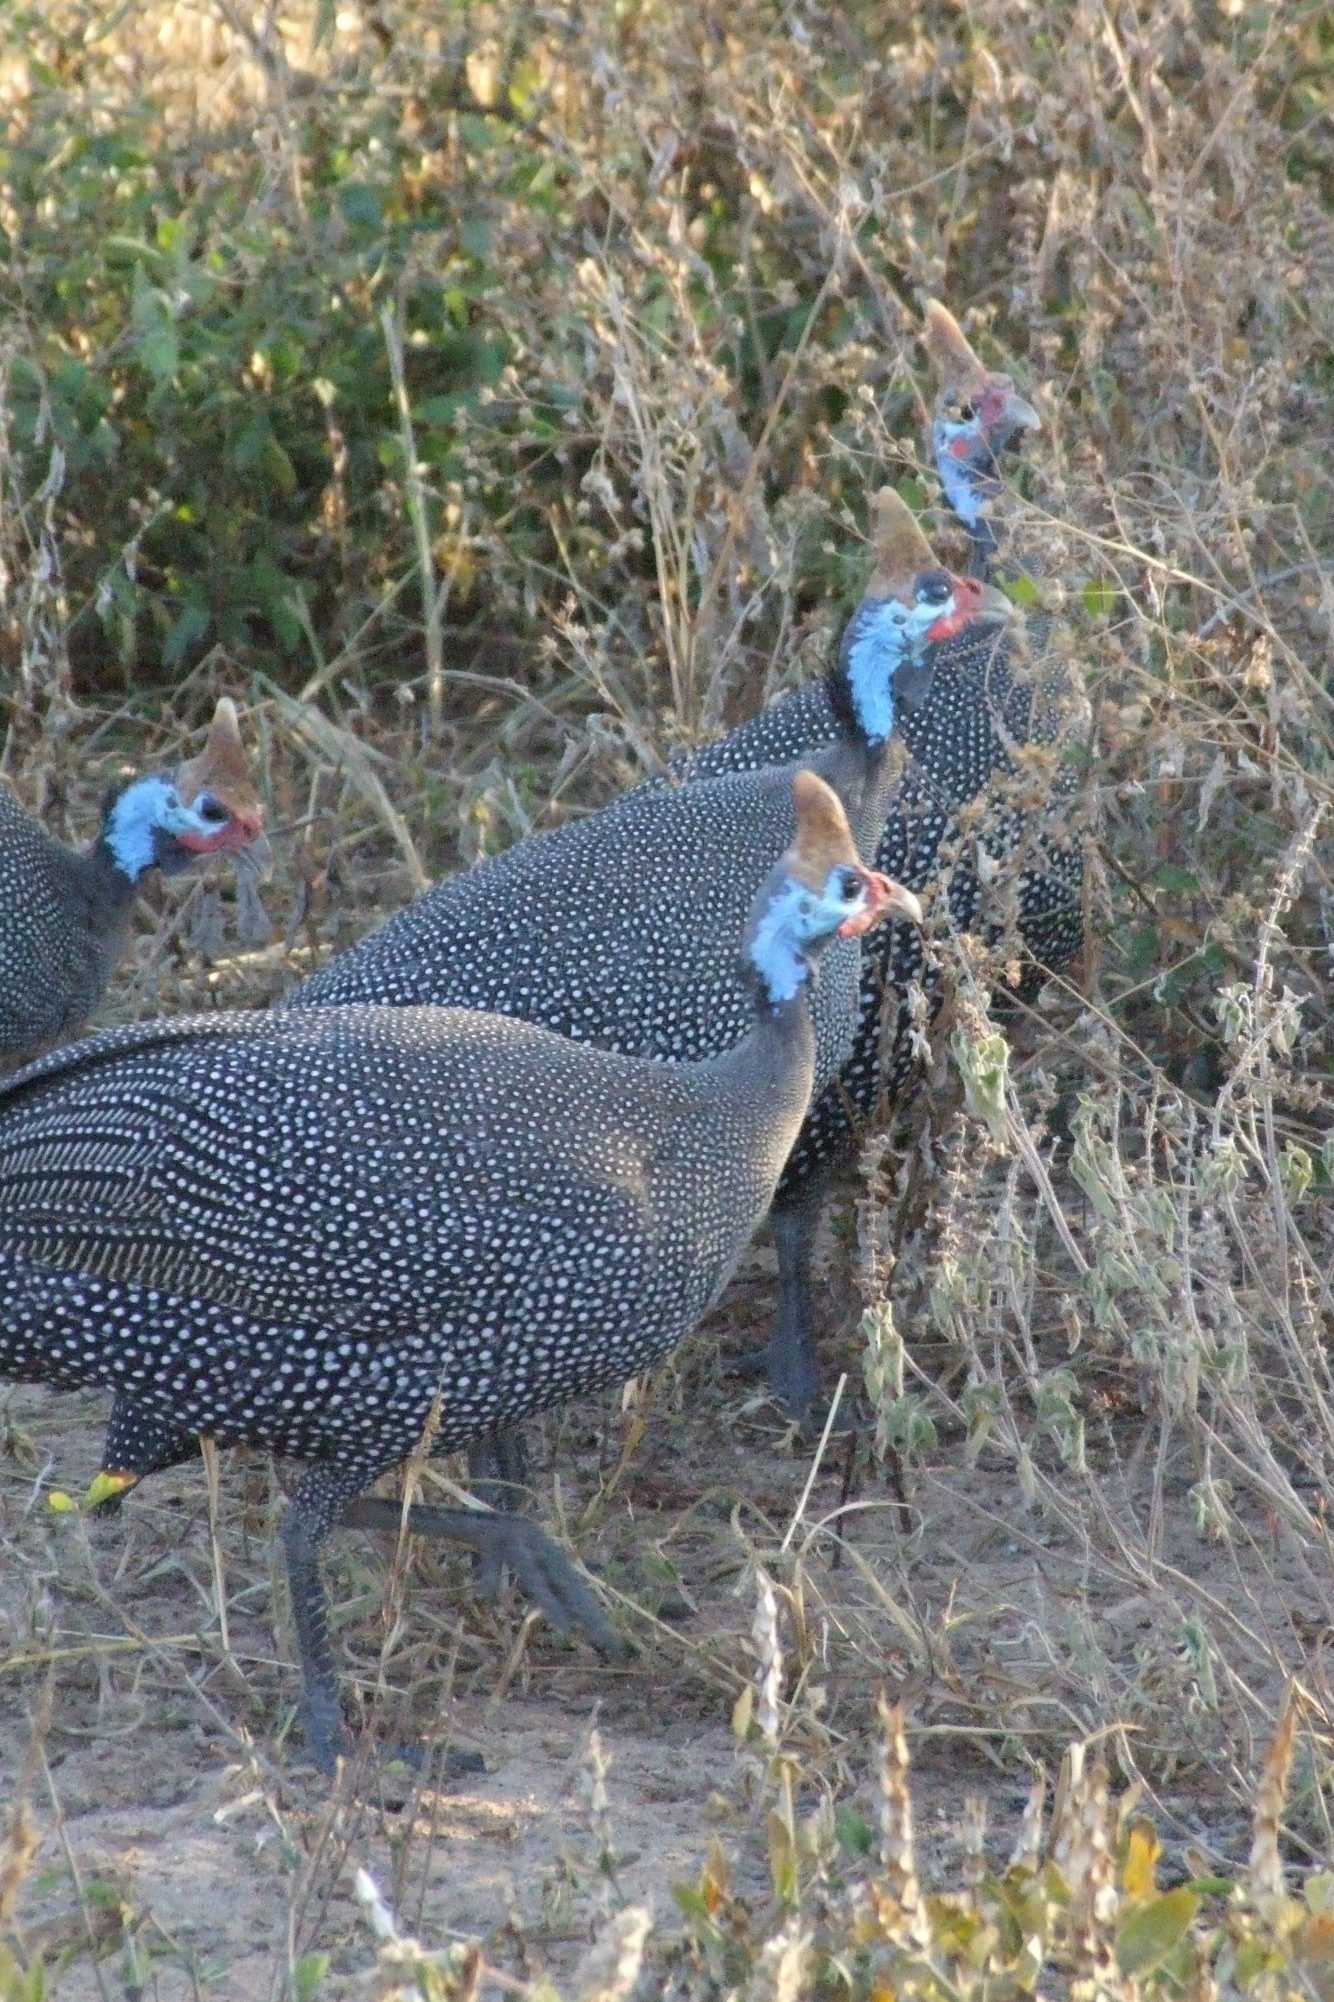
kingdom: Animalia
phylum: Chordata
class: Aves
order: Galliformes
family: Numididae
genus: Numida
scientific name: Numida meleagris
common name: Helmeted guineafowl
